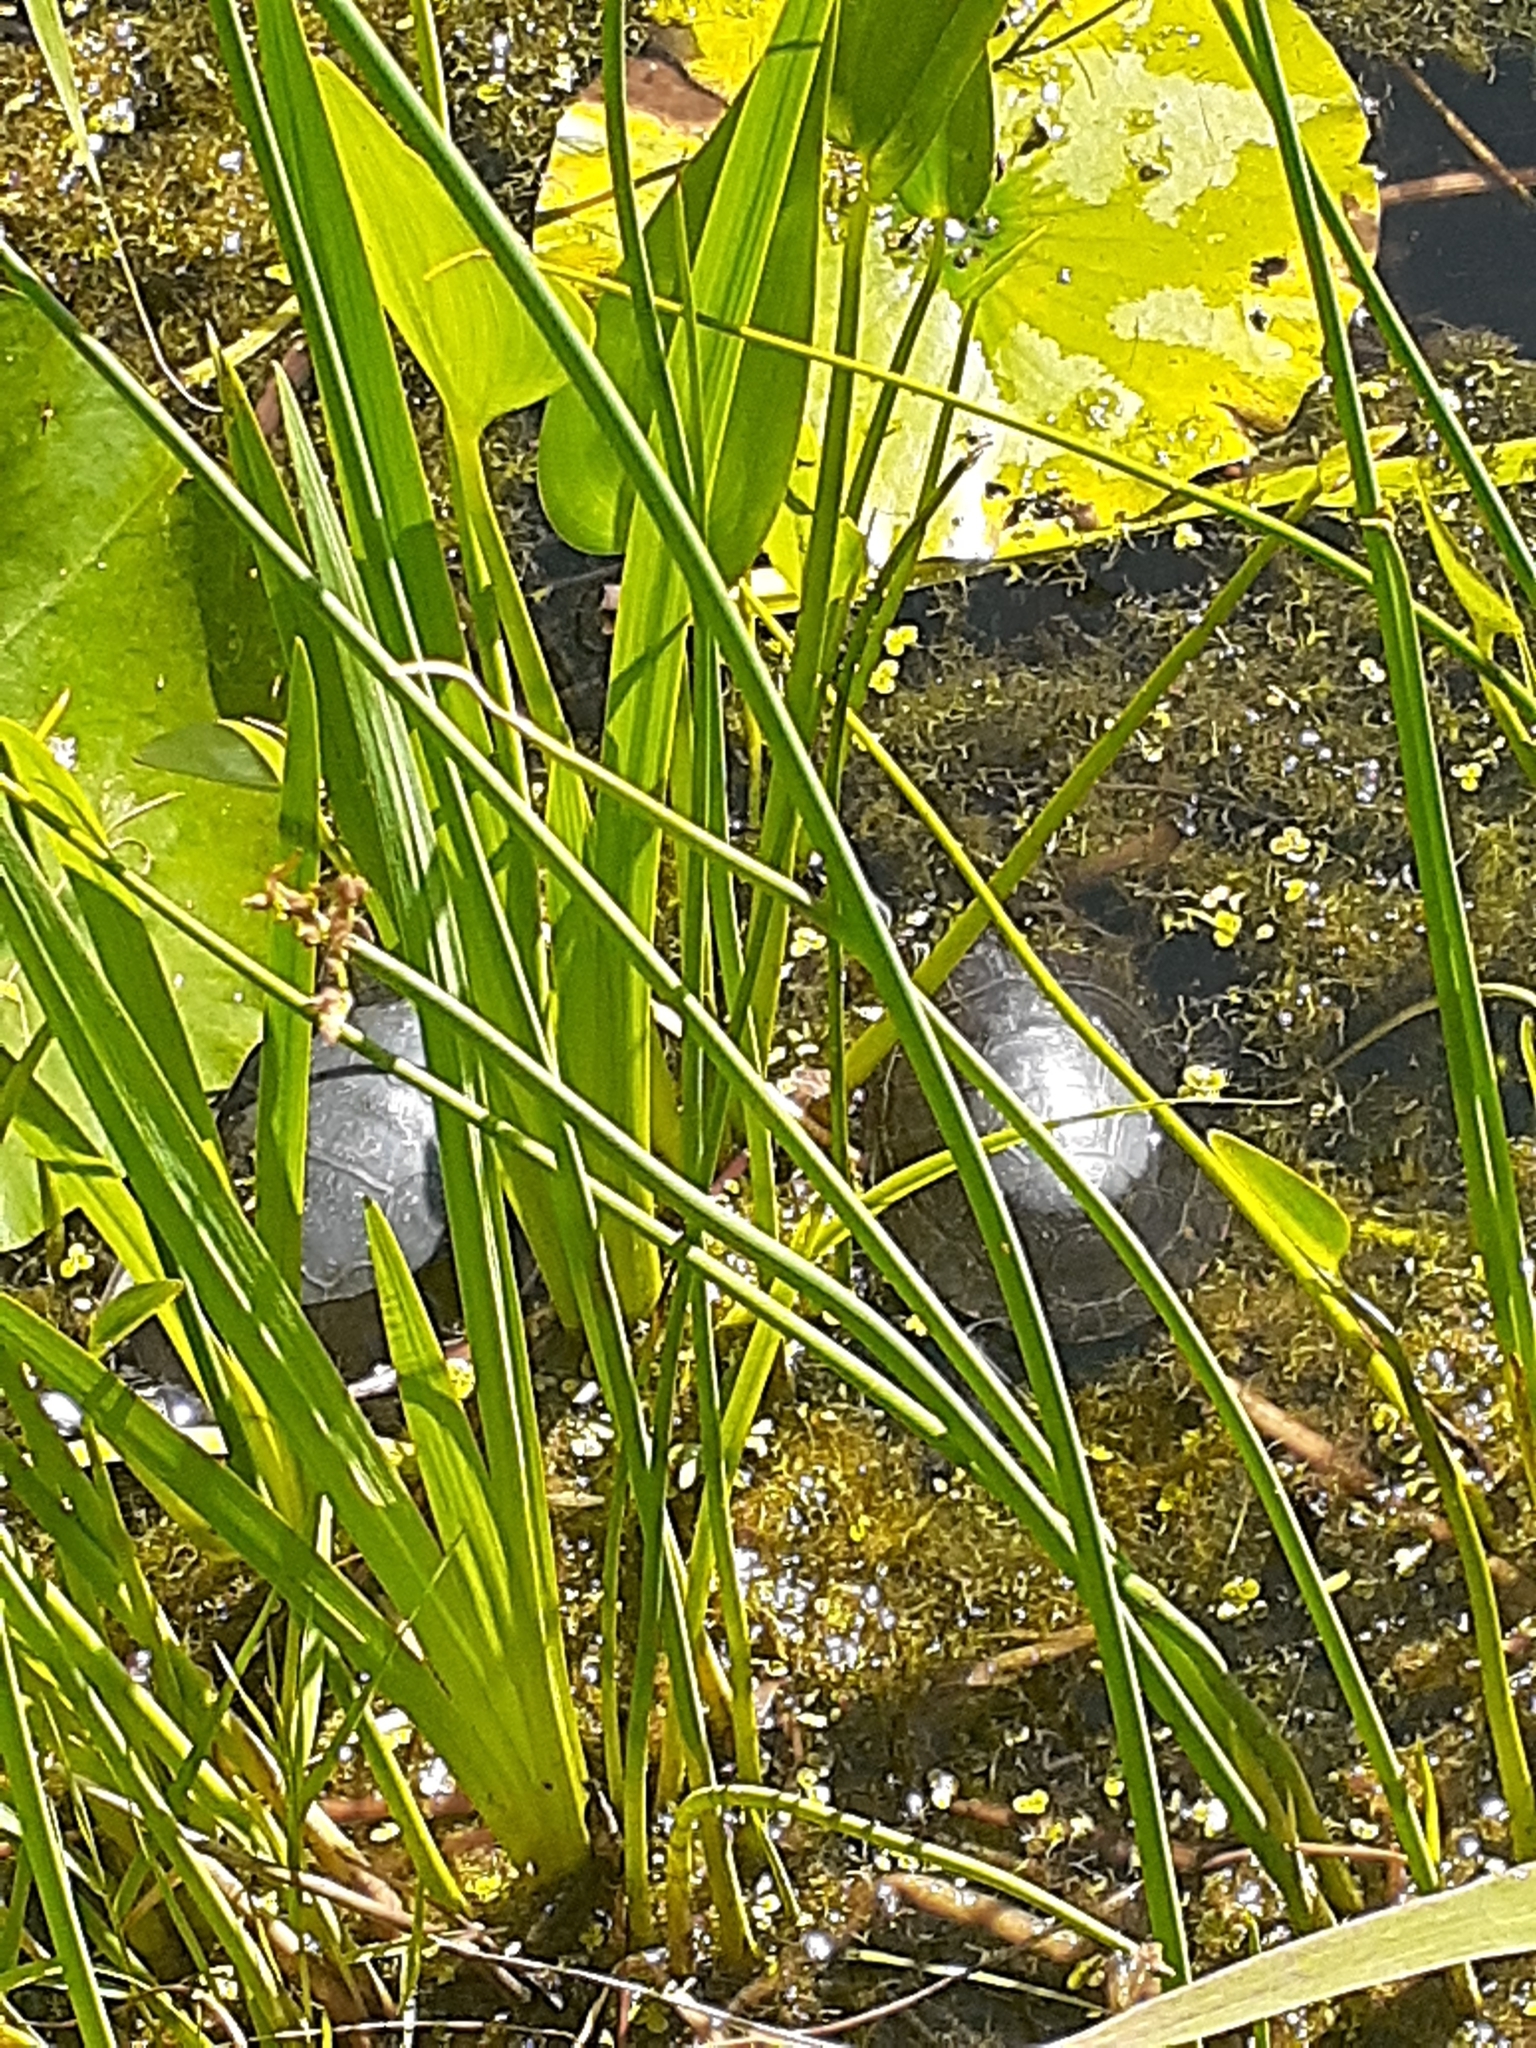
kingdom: Animalia
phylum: Chordata
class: Testudines
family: Emydidae
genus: Chrysemys
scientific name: Chrysemys picta
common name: Painted turtle
